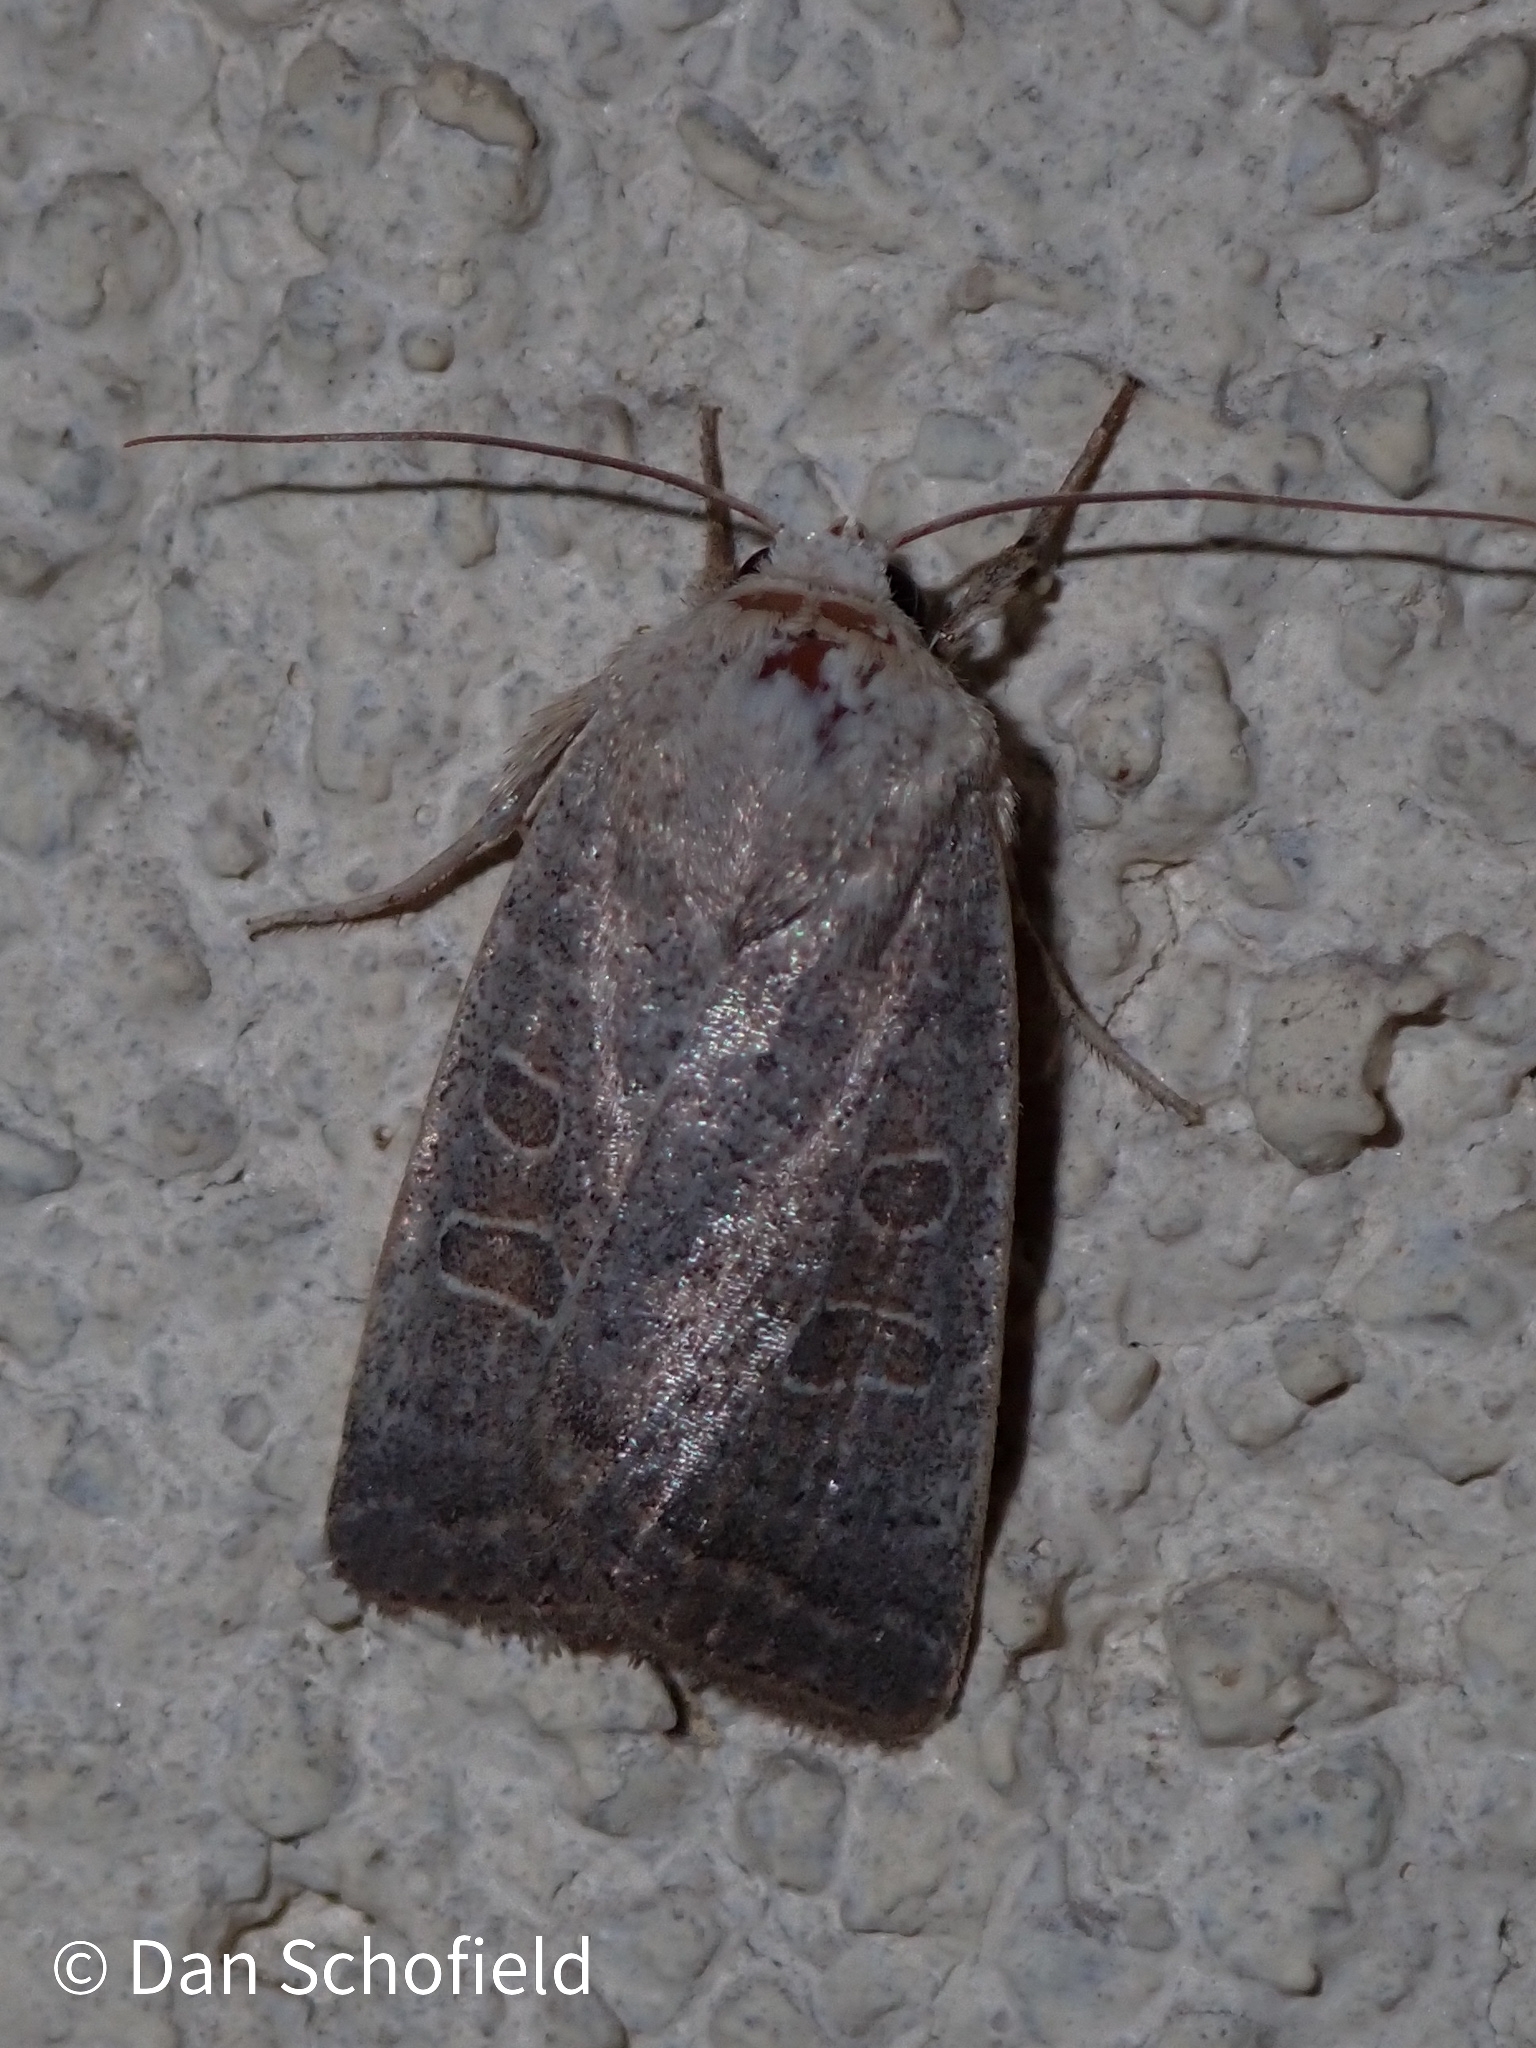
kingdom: Animalia
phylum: Arthropoda
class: Insecta
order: Lepidoptera
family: Noctuidae
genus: Hoplodrina
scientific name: Hoplodrina ambigua
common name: Vine's rustic
